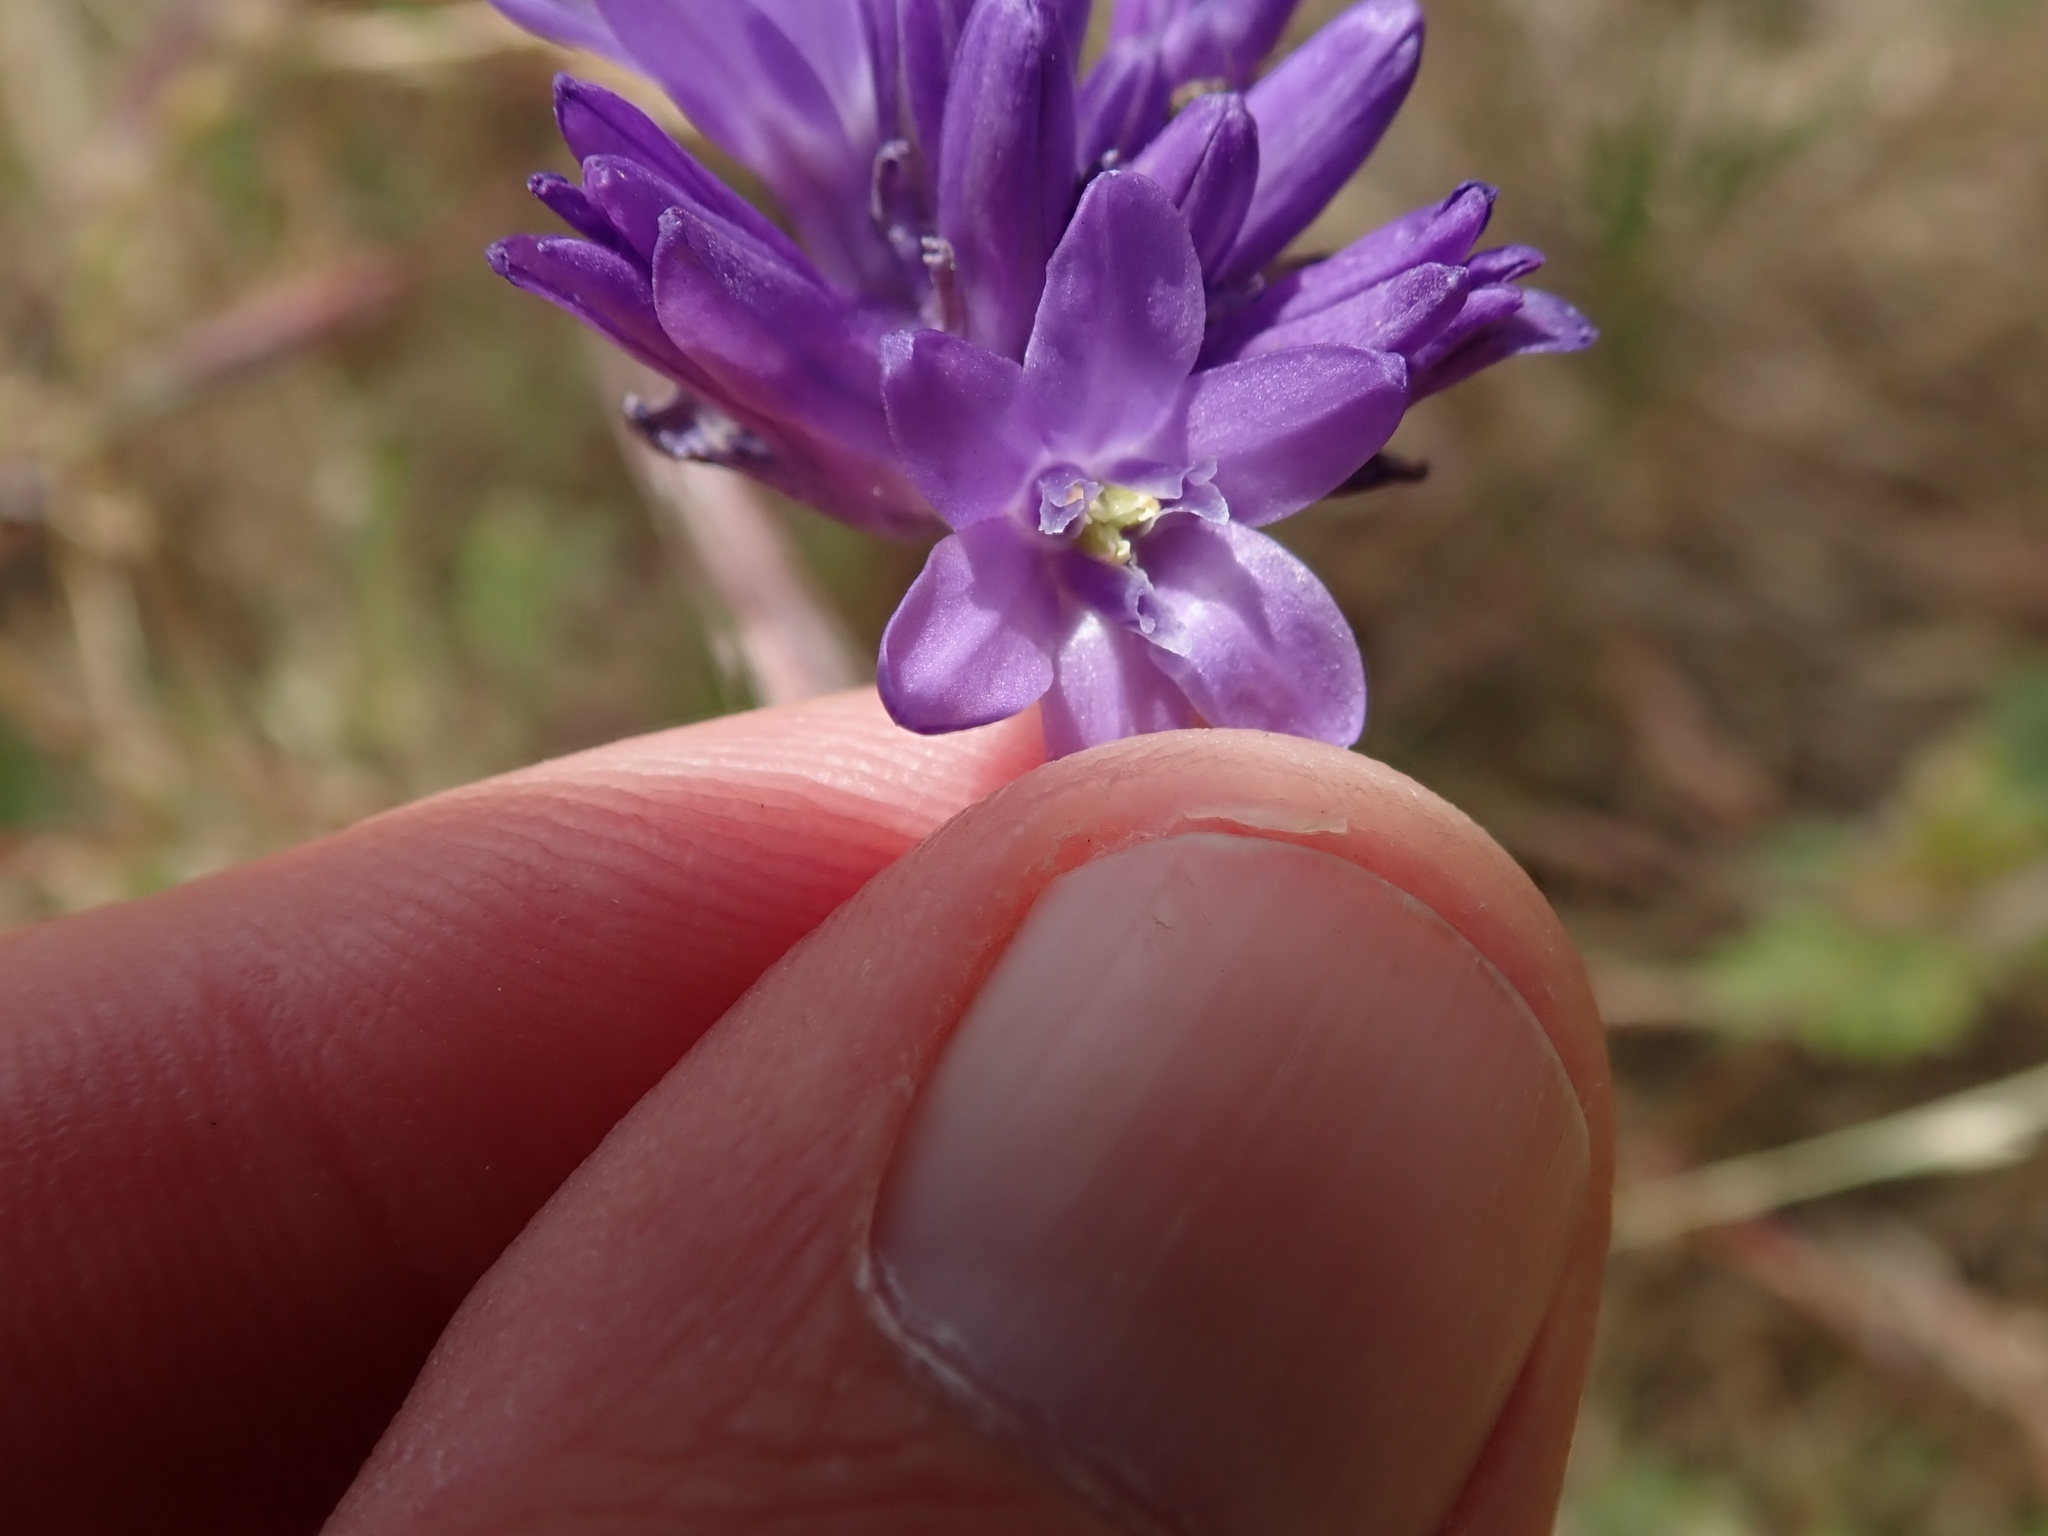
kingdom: Plantae
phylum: Tracheophyta
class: Liliopsida
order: Asparagales
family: Asparagaceae
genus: Dichelostemma
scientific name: Dichelostemma congestum
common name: Fork-tooth ookow
